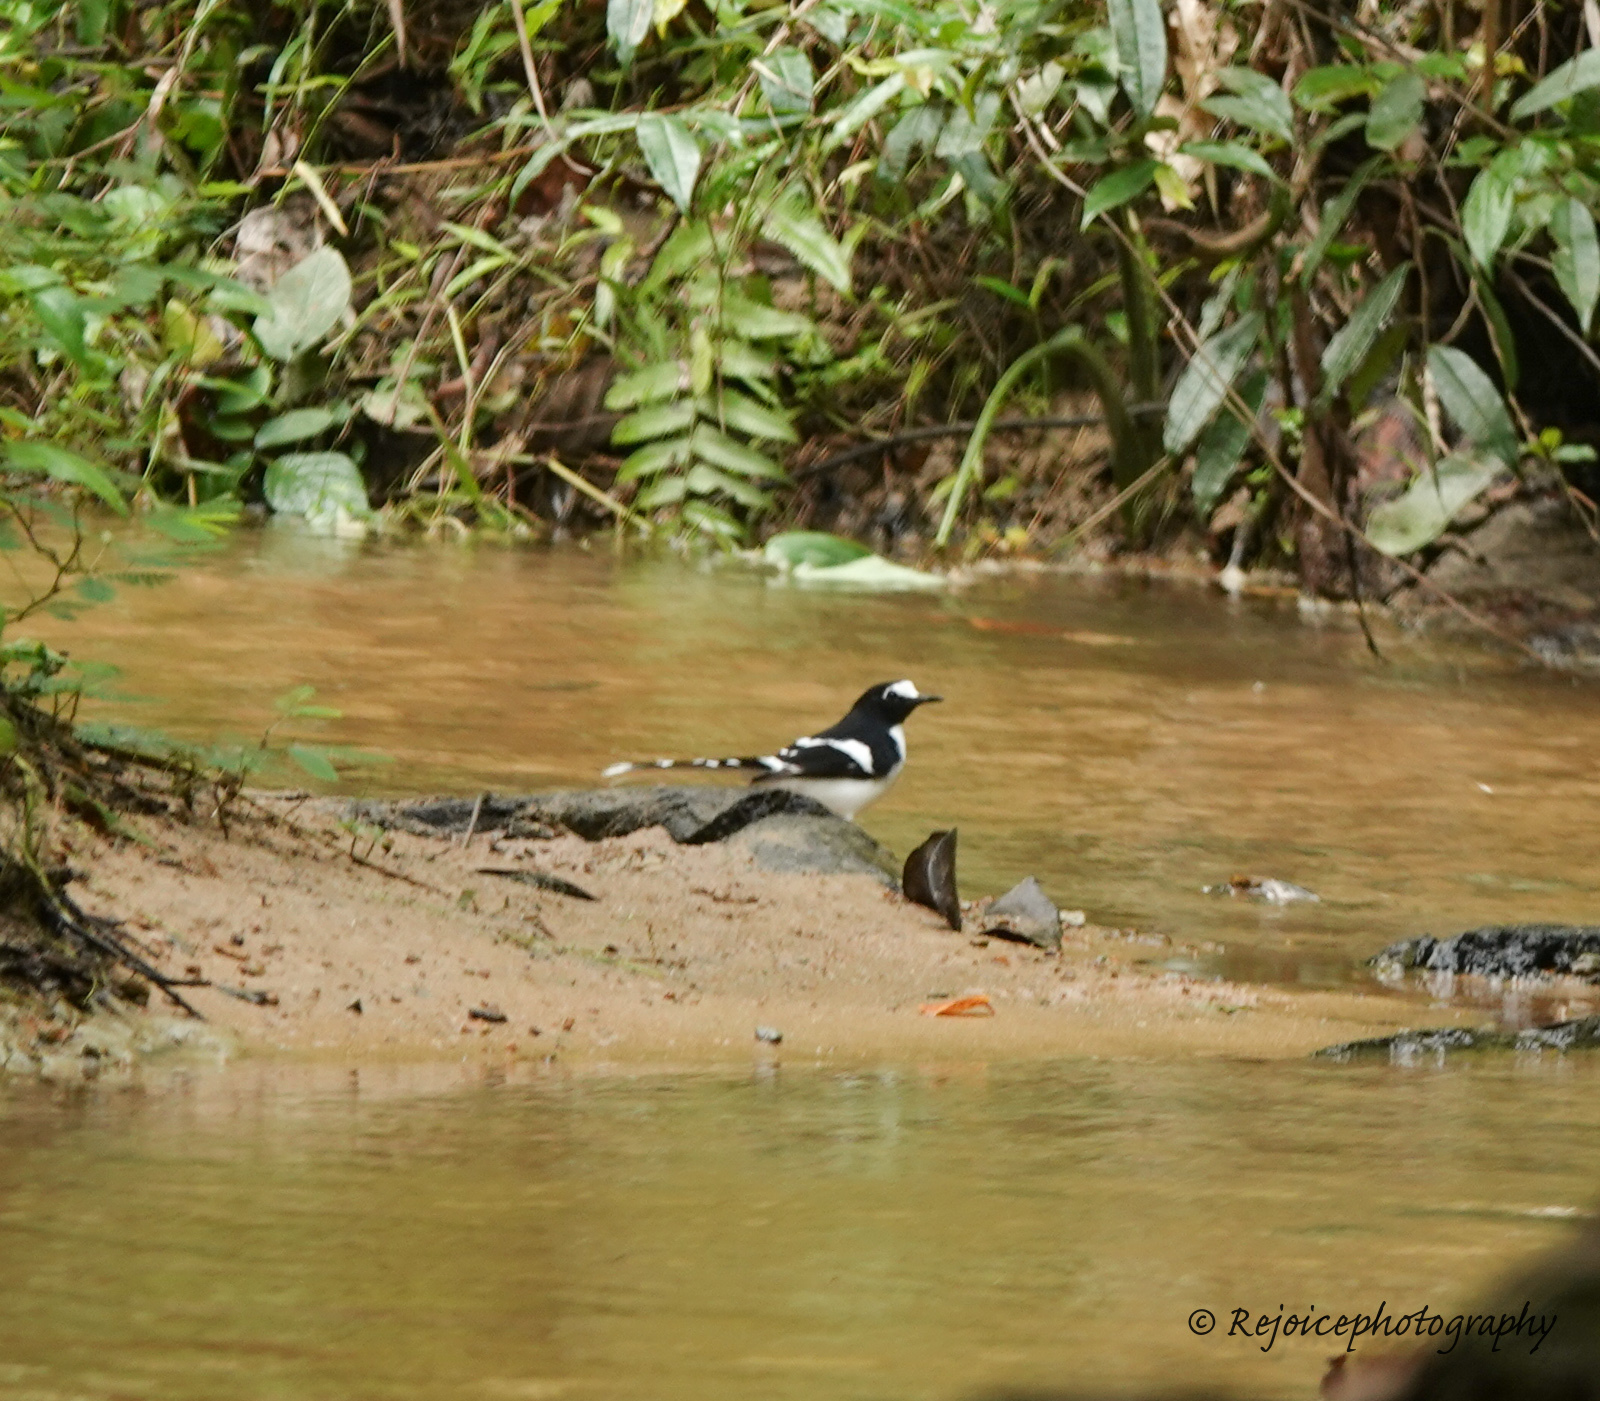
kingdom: Animalia
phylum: Chordata
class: Aves
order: Passeriformes
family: Muscicapidae
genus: Enicurus
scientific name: Enicurus immaculatus
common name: Black-backed forktail
